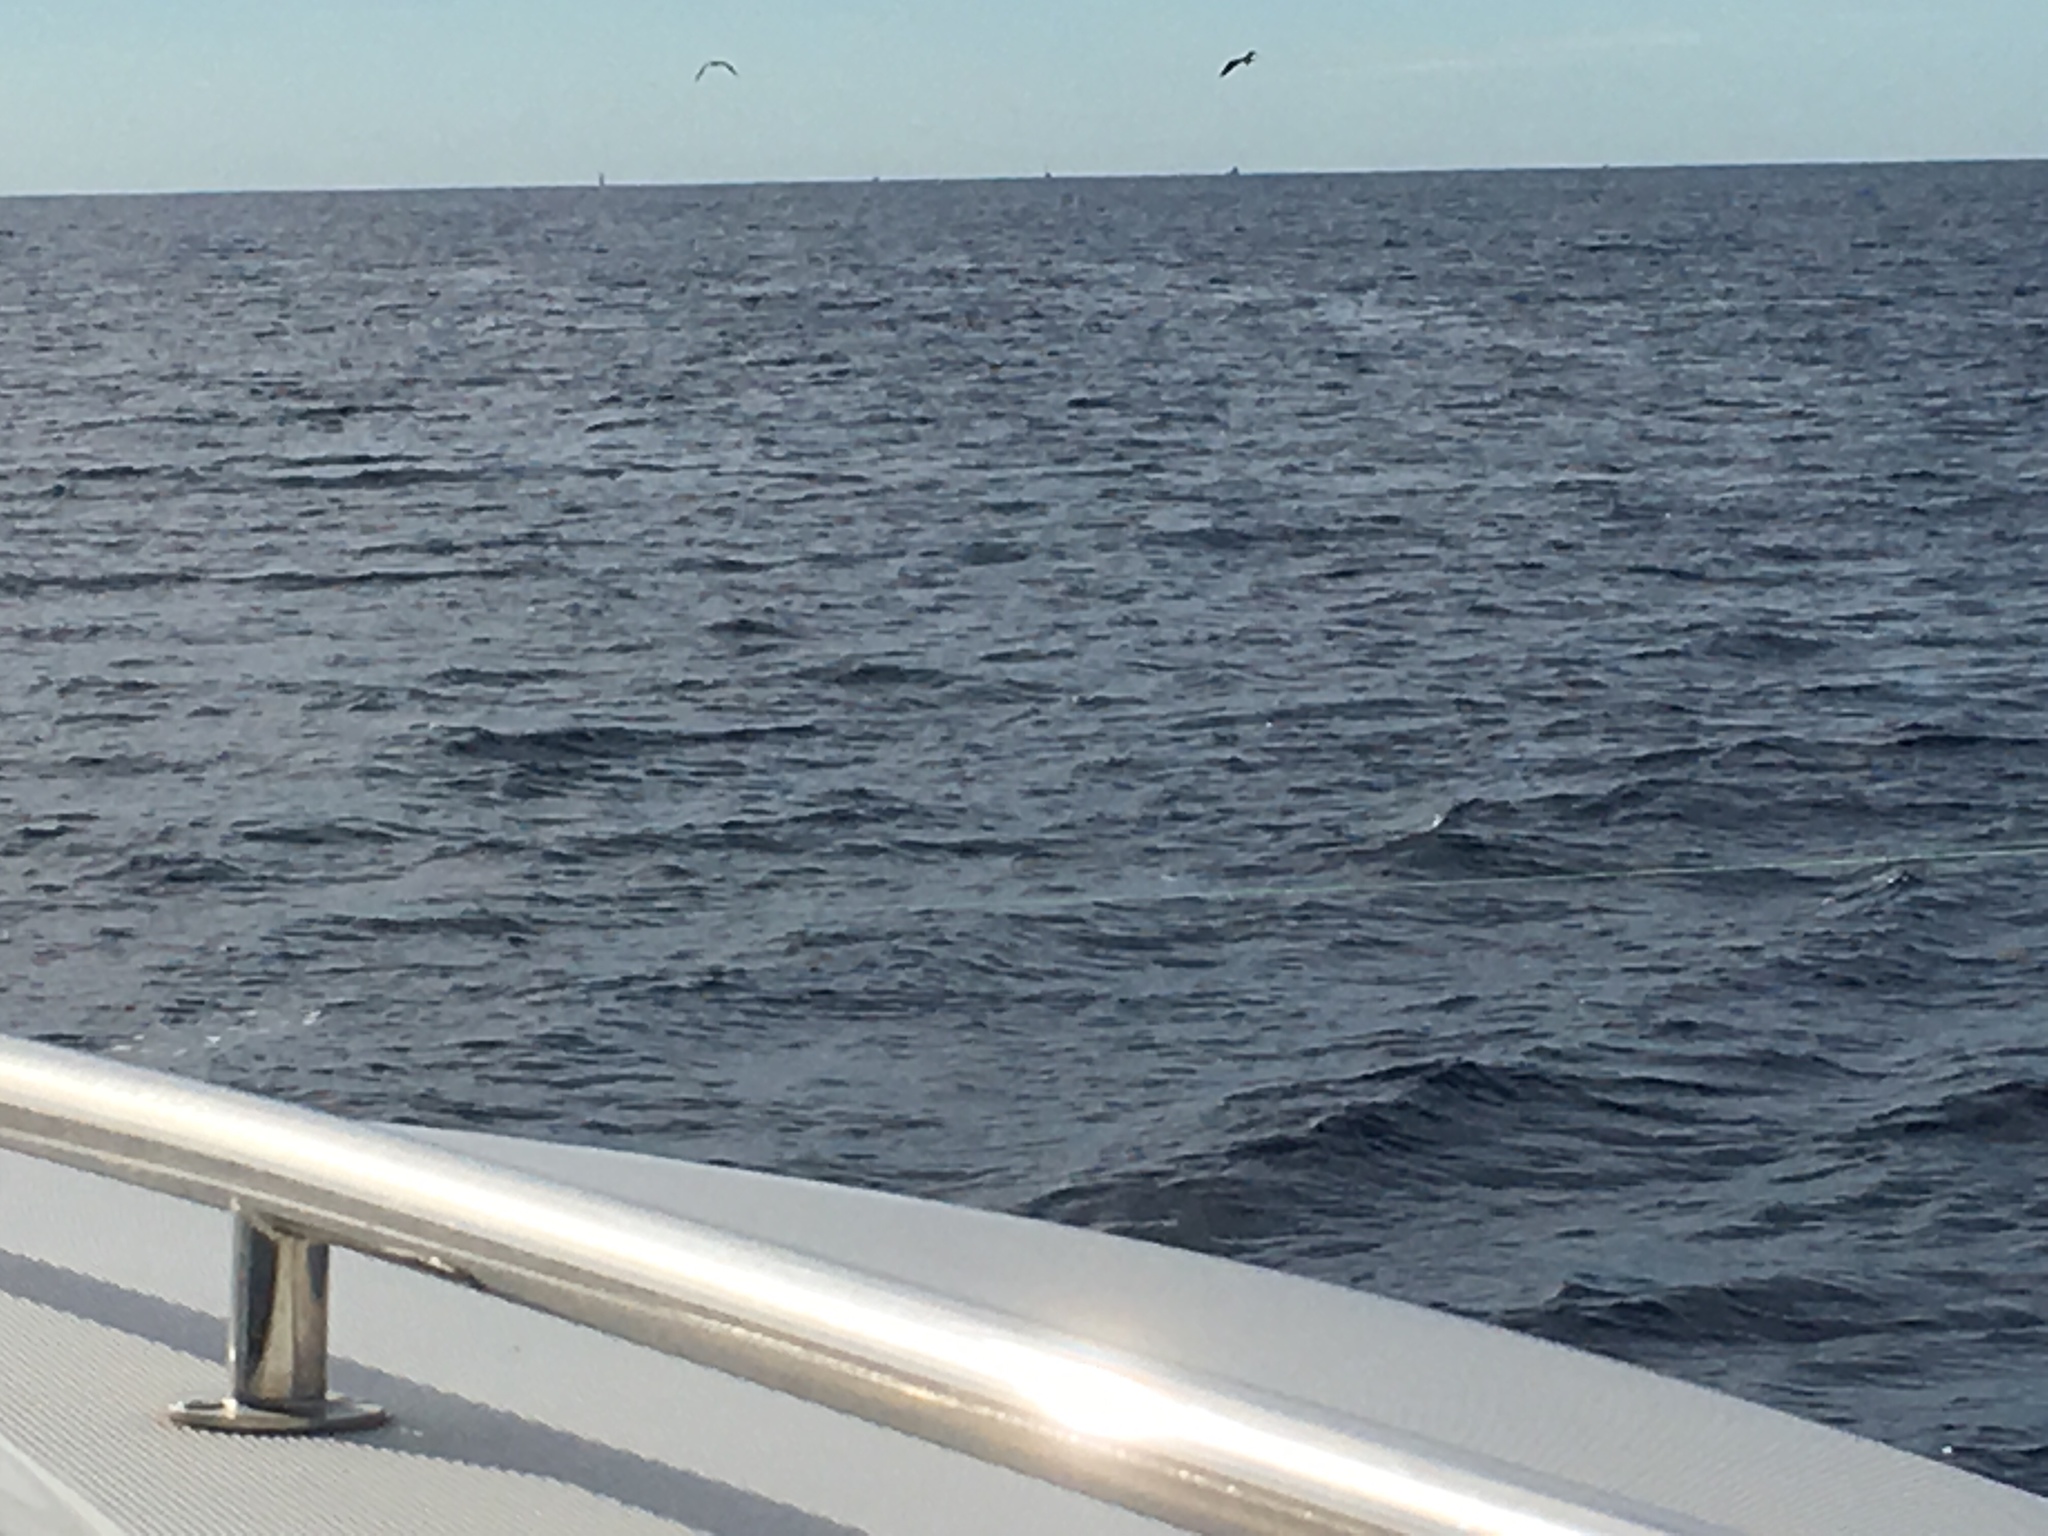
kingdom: Animalia
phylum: Chordata
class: Aves
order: Suliformes
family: Fregatidae
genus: Fregata
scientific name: Fregata magnificens
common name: Magnificent frigatebird
